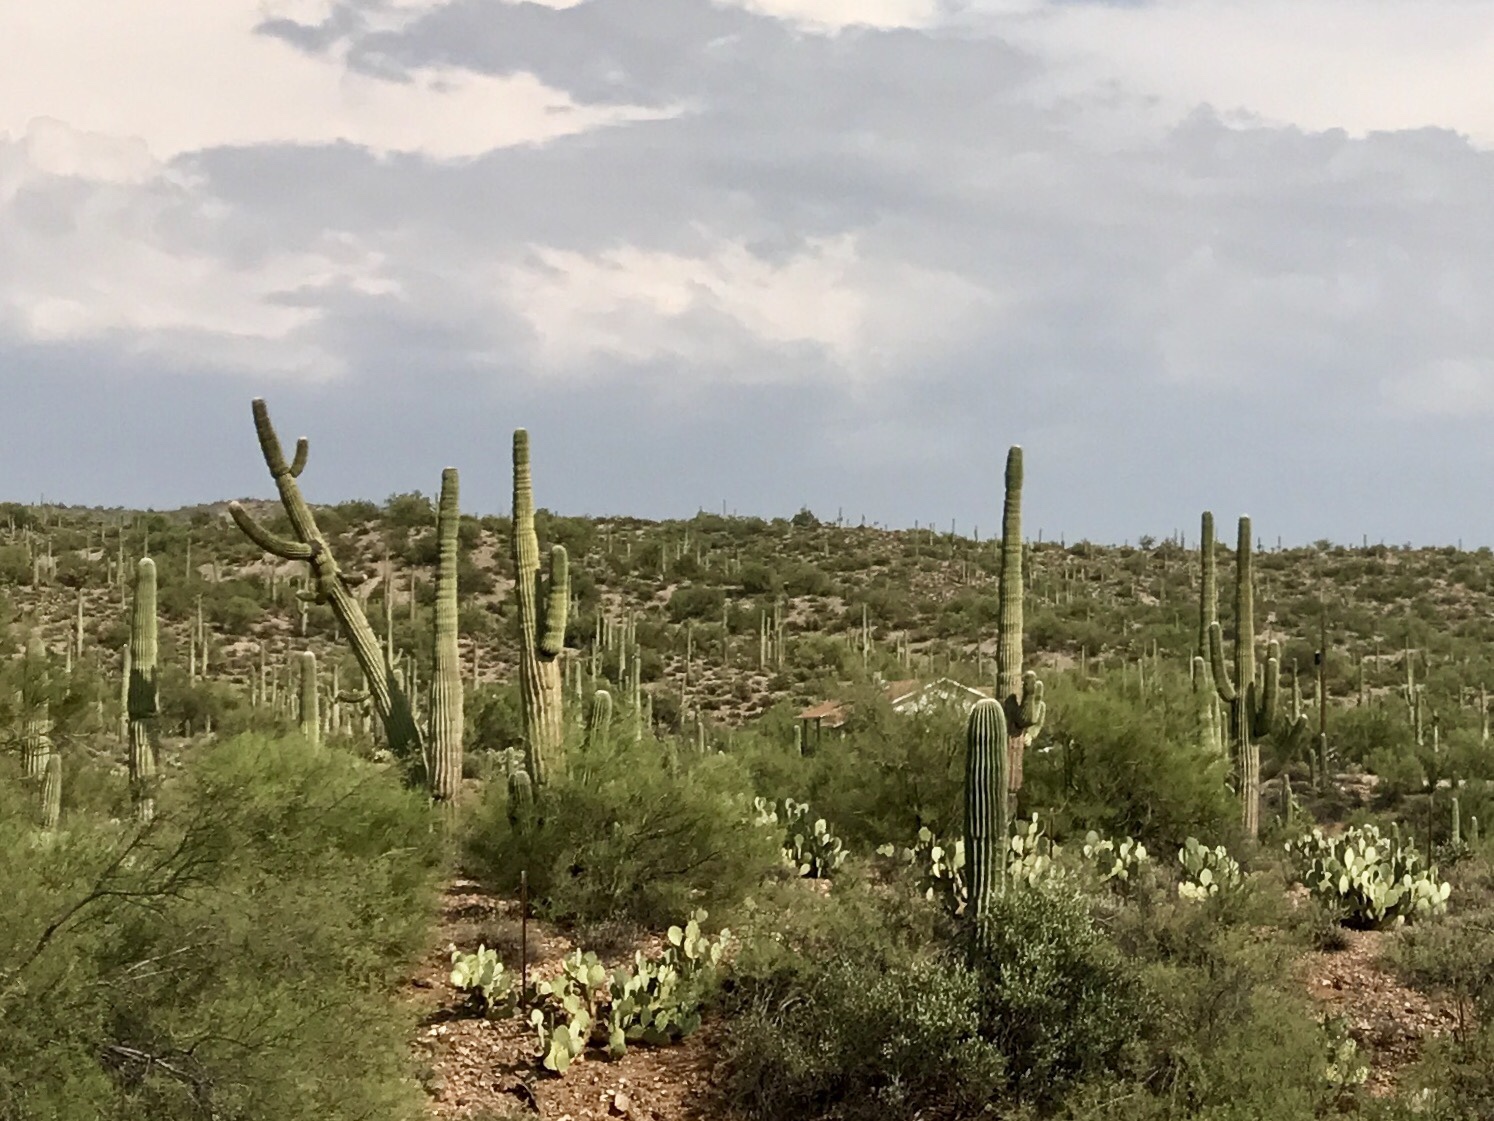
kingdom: Plantae
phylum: Tracheophyta
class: Magnoliopsida
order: Caryophyllales
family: Cactaceae
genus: Carnegiea
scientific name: Carnegiea gigantea
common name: Saguaro
